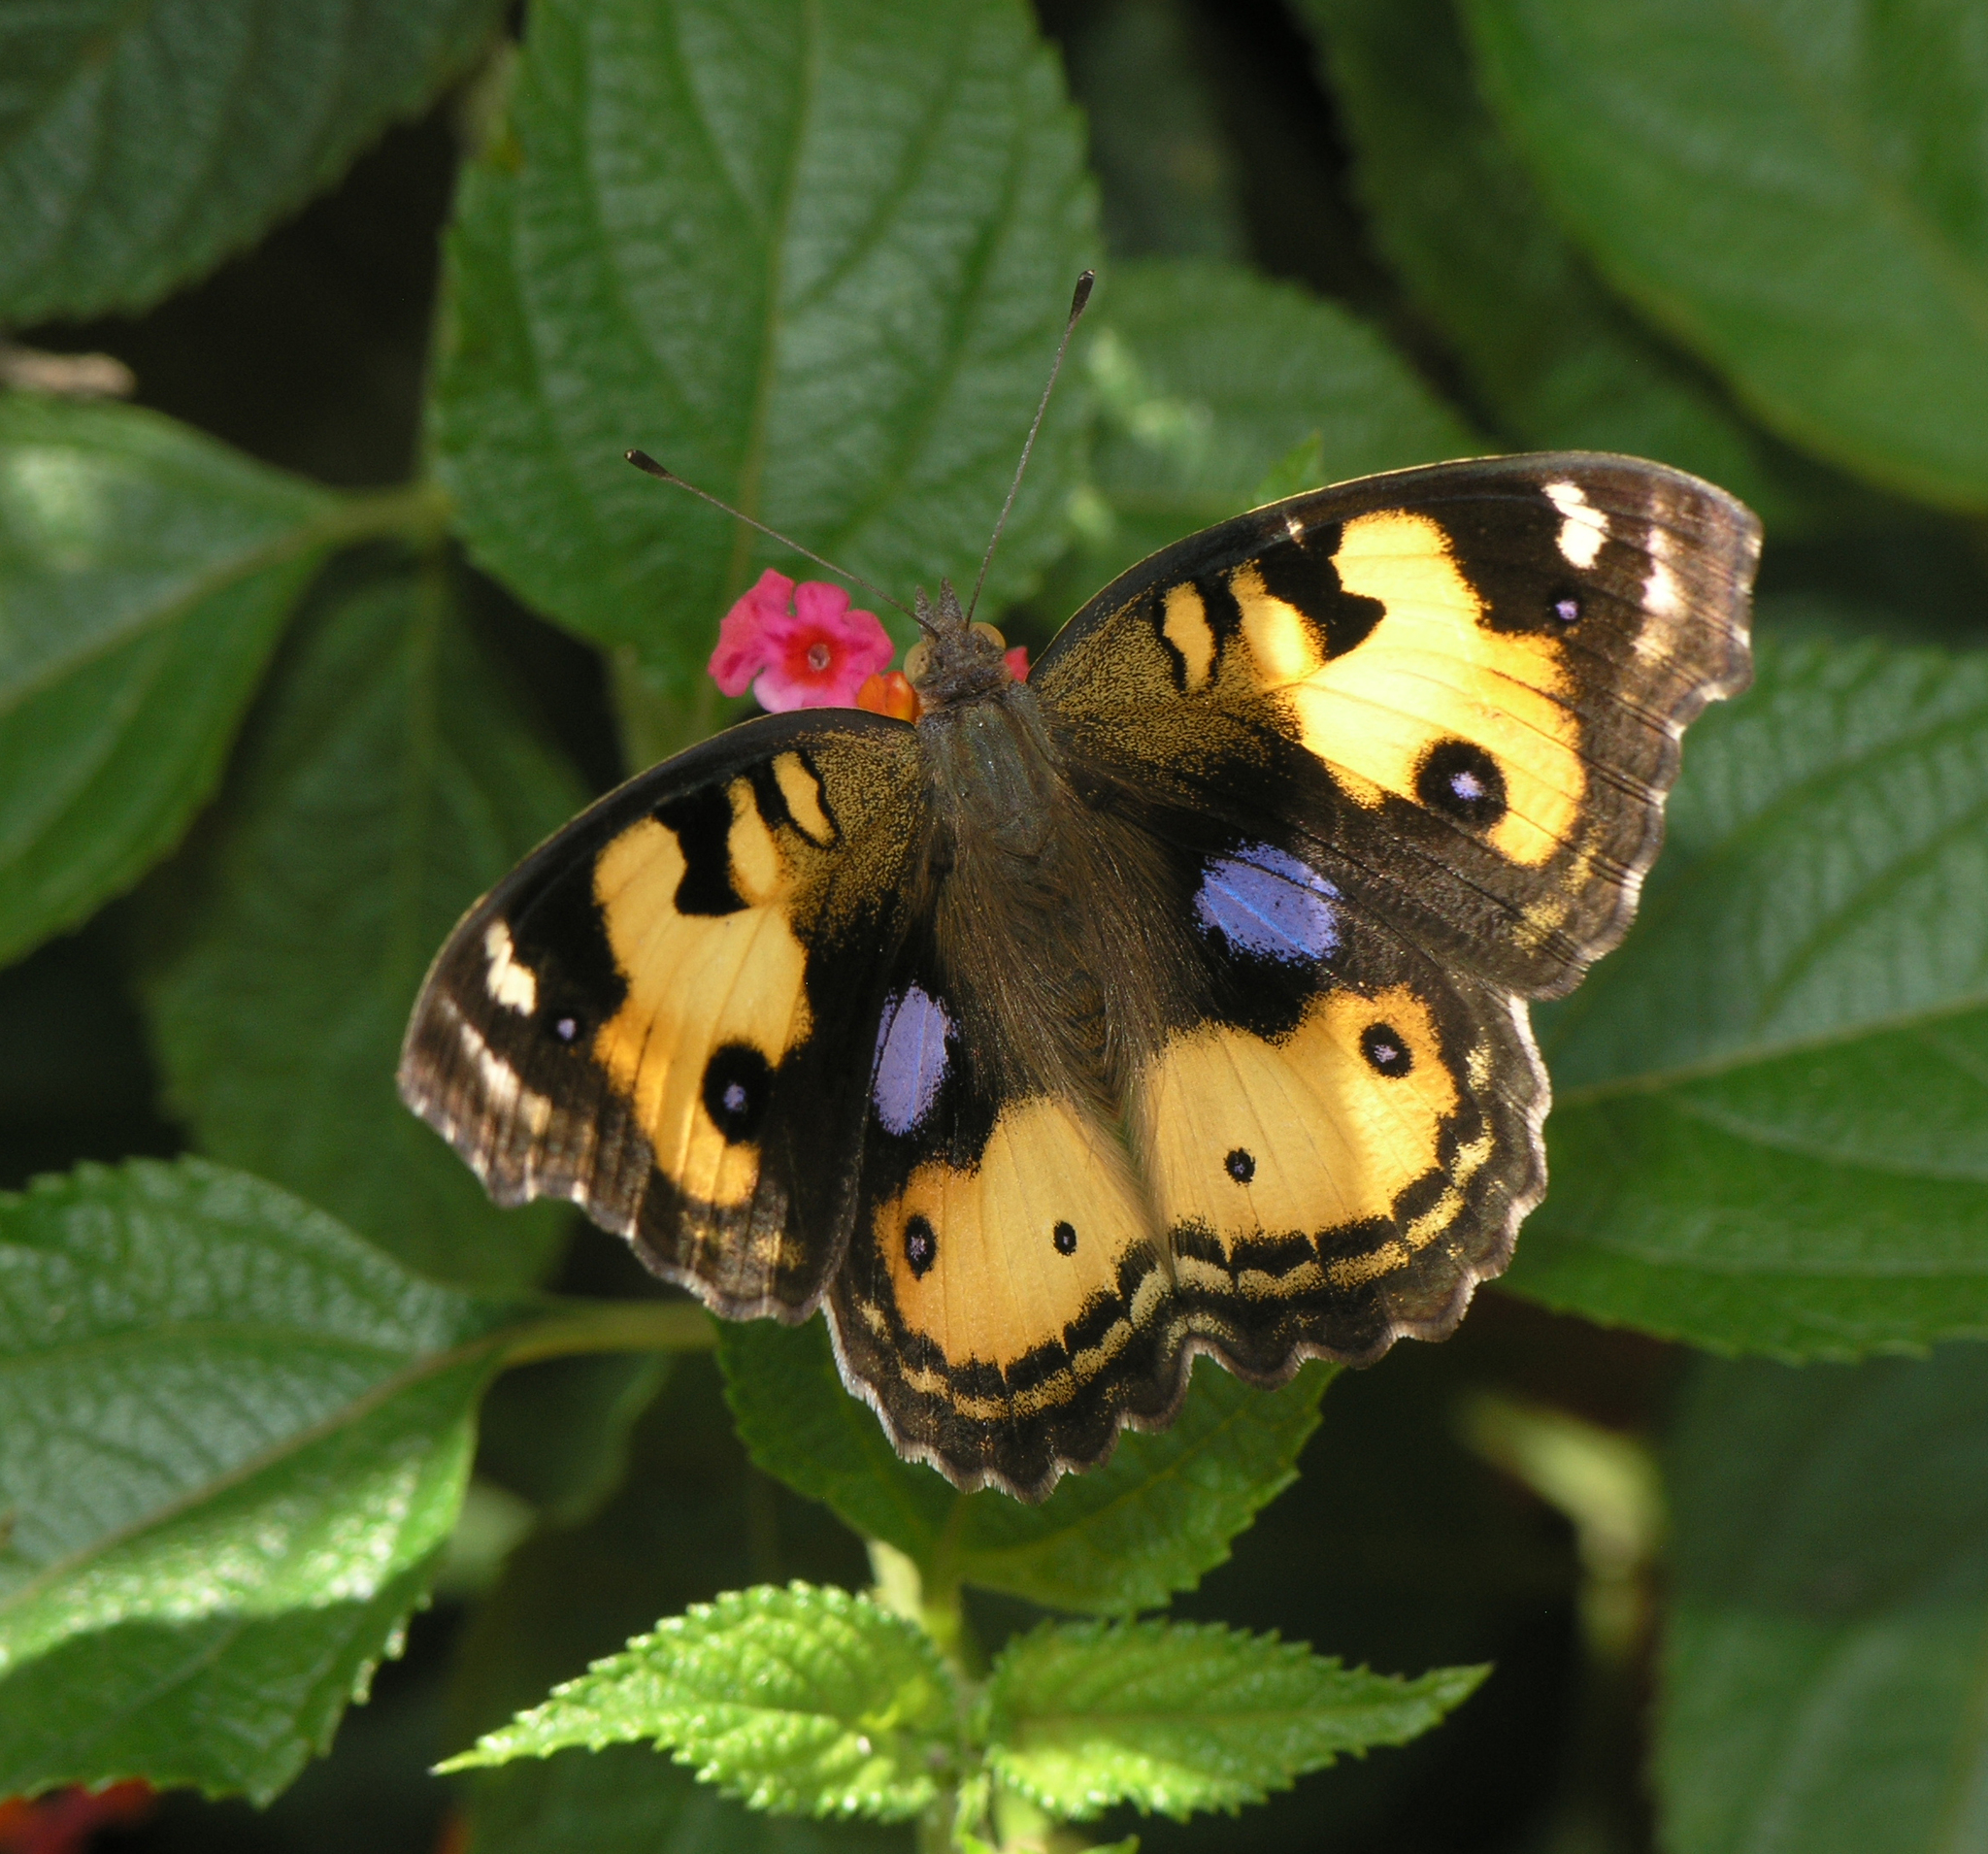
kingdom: Animalia
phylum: Arthropoda
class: Insecta
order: Lepidoptera
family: Nymphalidae
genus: Junonia
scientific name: Junonia hierta
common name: Yellow pansy
